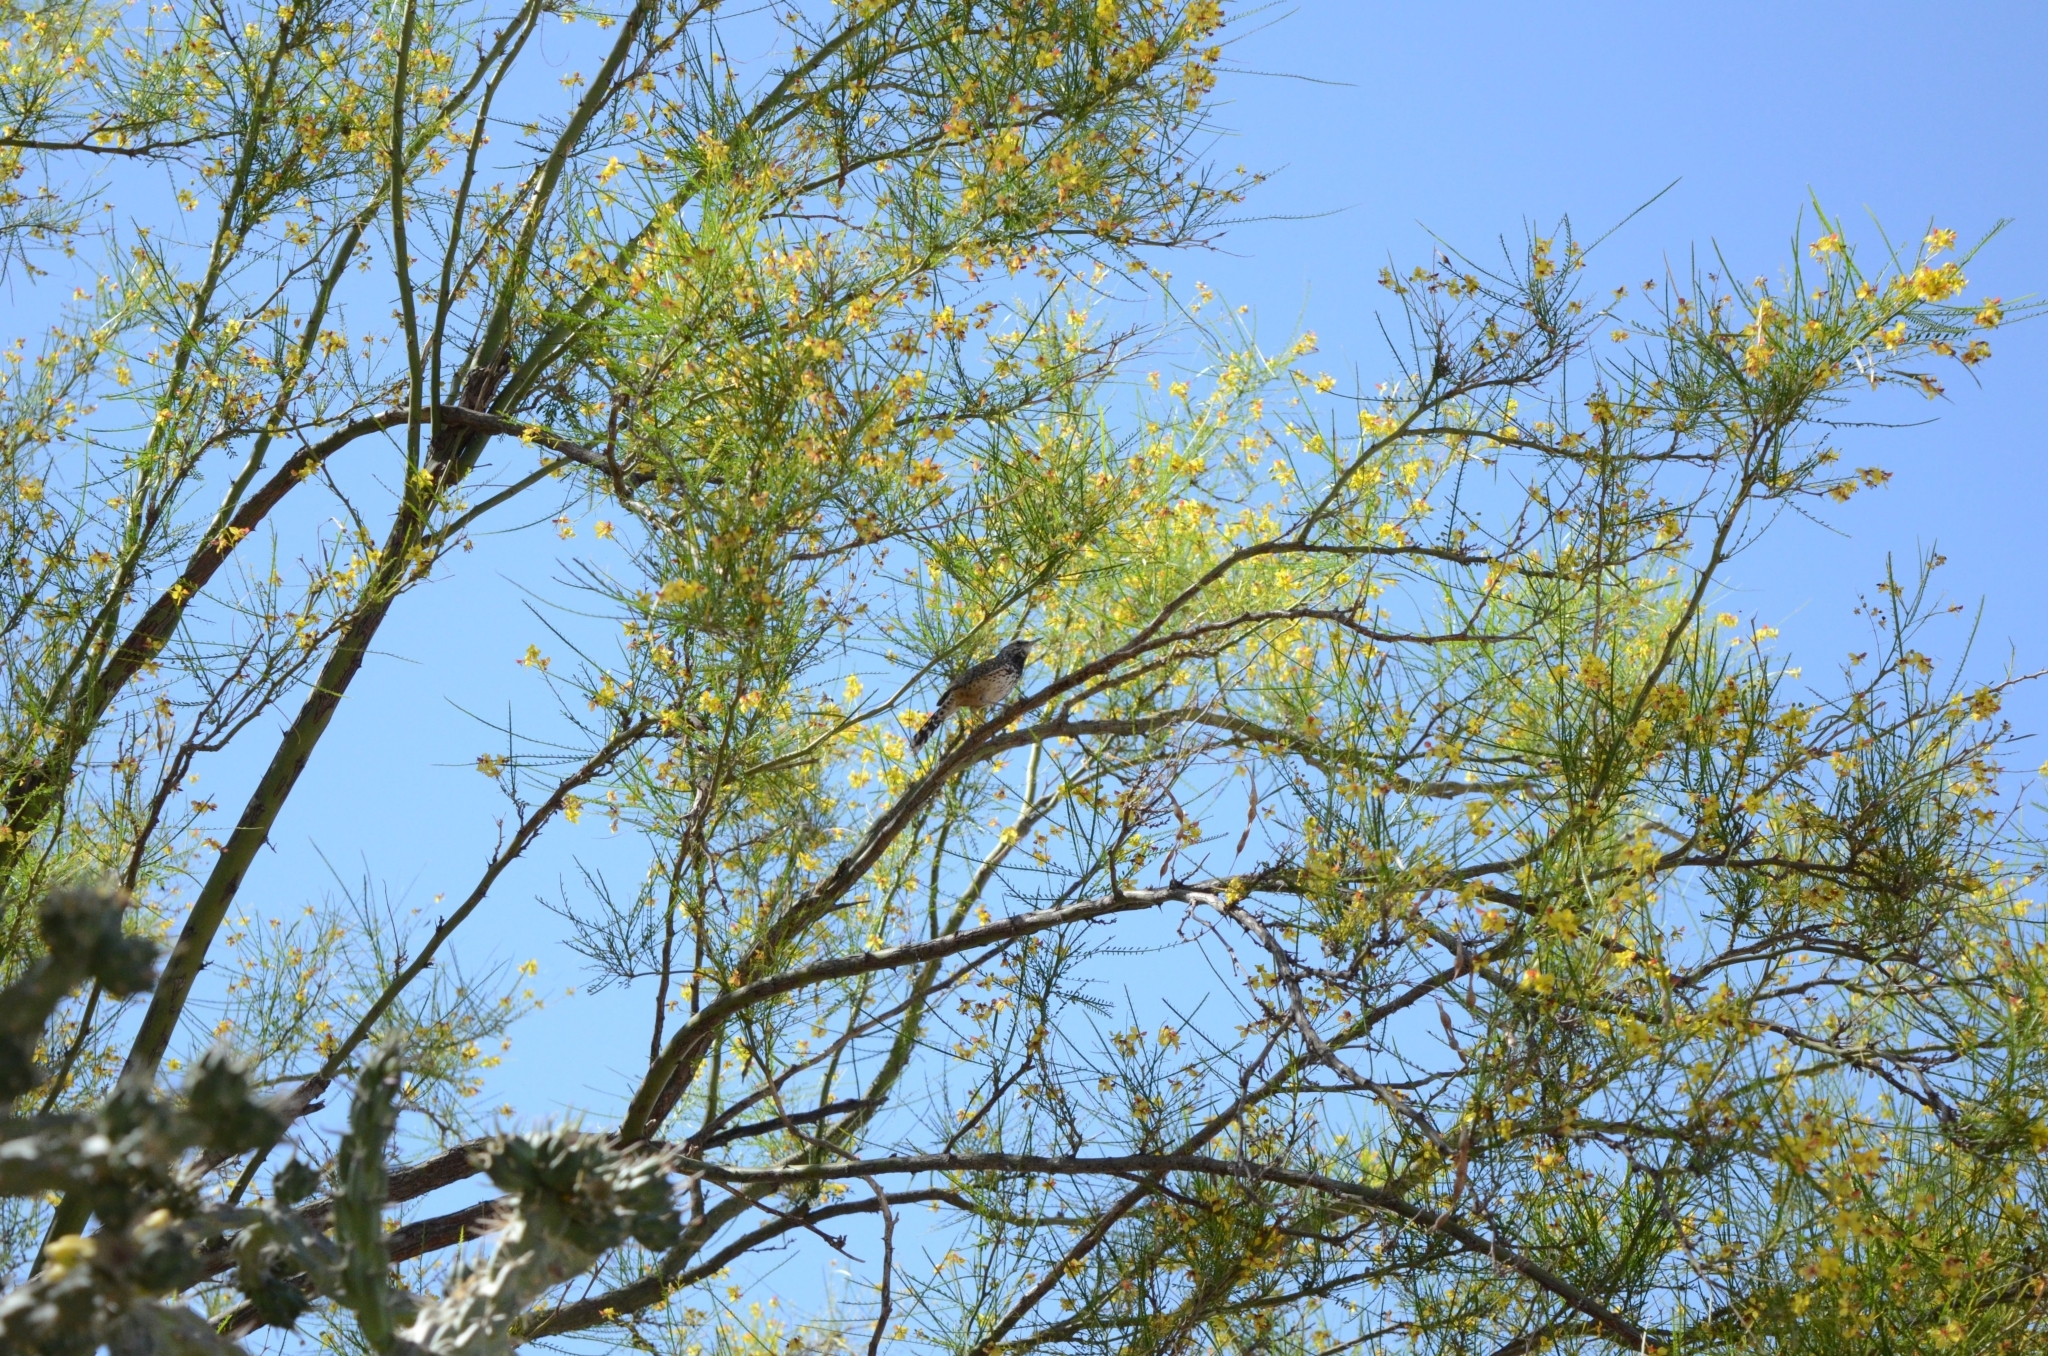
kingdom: Animalia
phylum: Chordata
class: Aves
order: Passeriformes
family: Troglodytidae
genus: Campylorhynchus
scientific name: Campylorhynchus brunneicapillus
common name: Cactus wren
